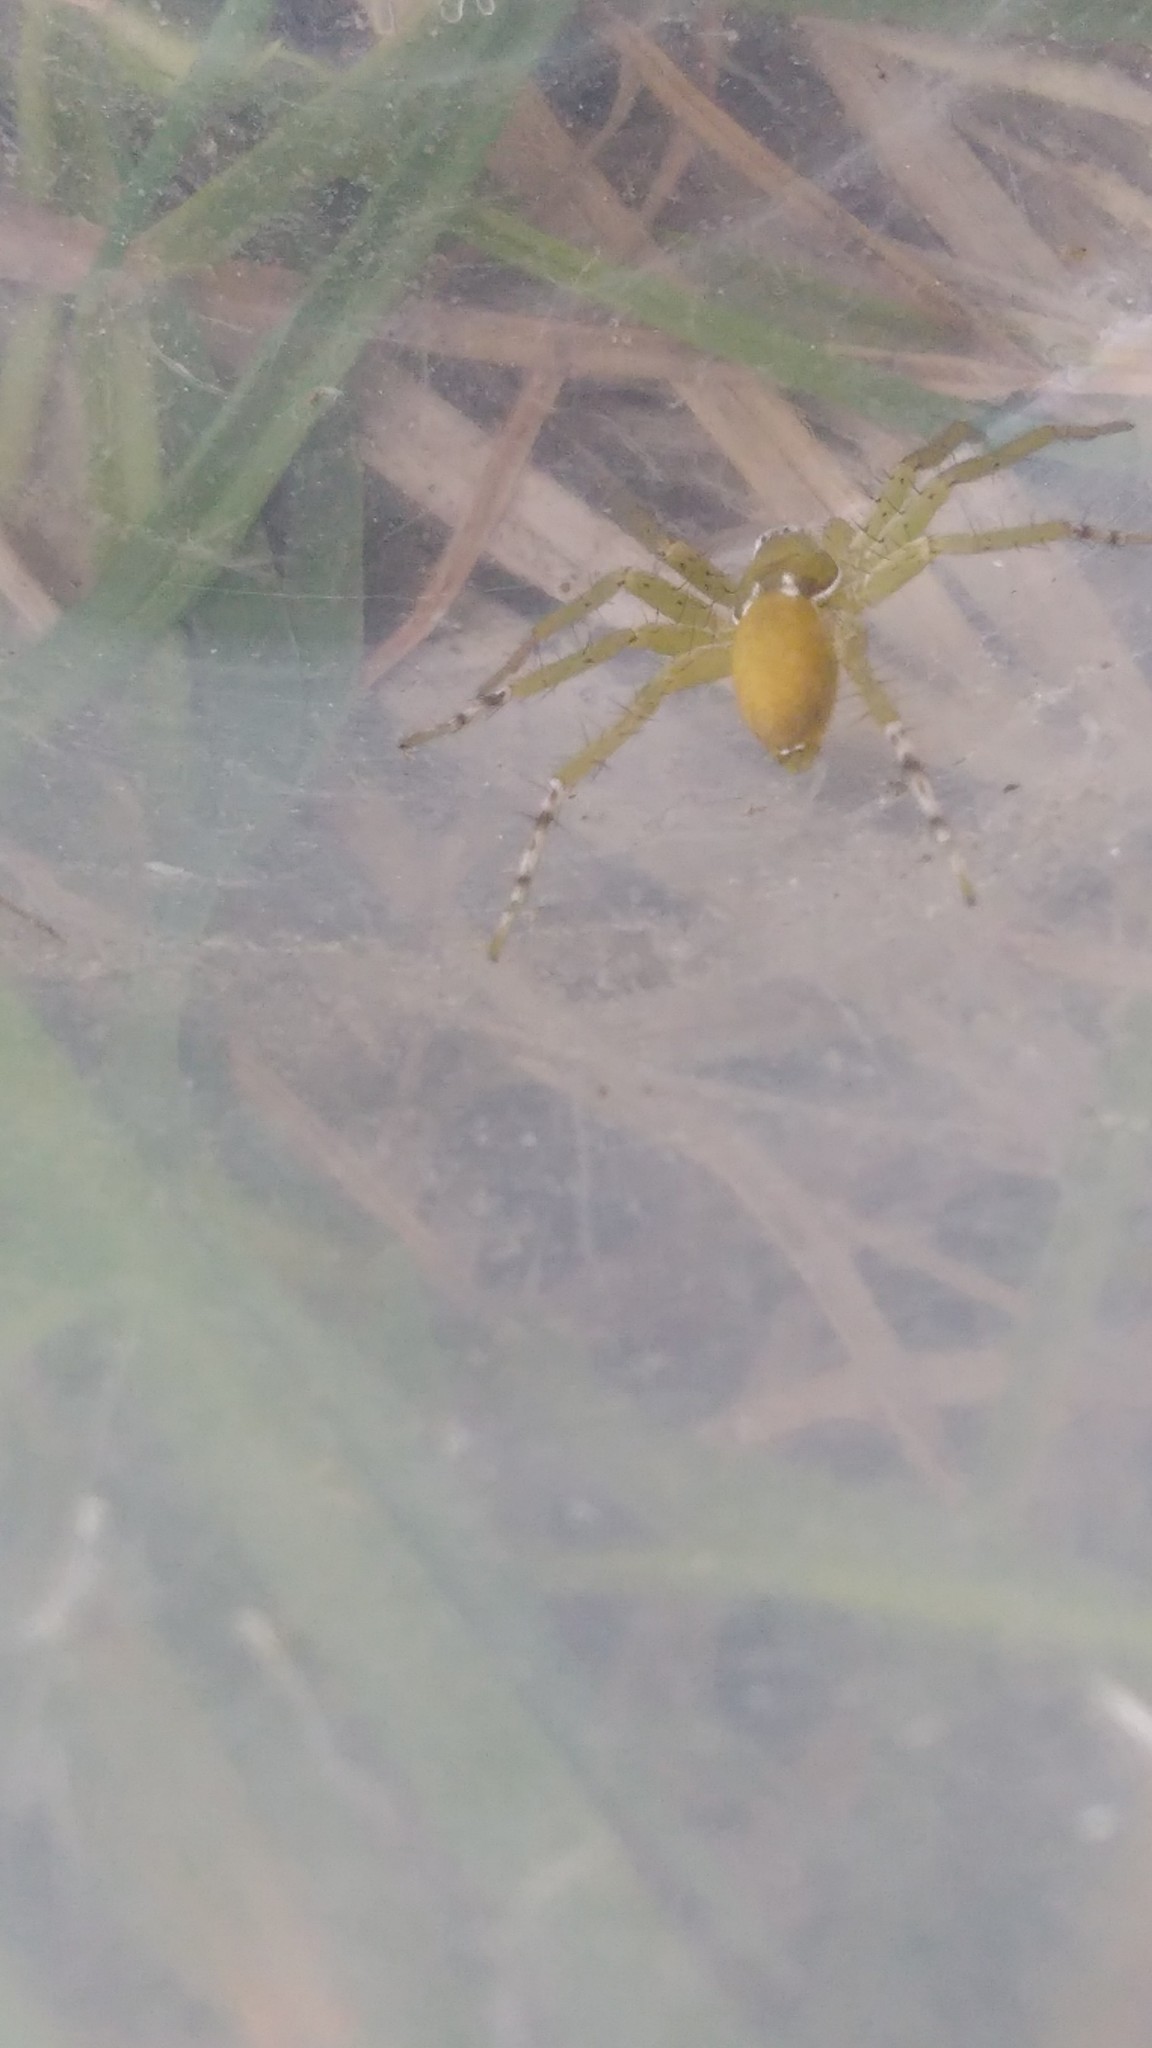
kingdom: Animalia
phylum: Arthropoda
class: Arachnida
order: Araneae
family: Anyphaenidae
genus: Arachosia
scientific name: Arachosia proseni
